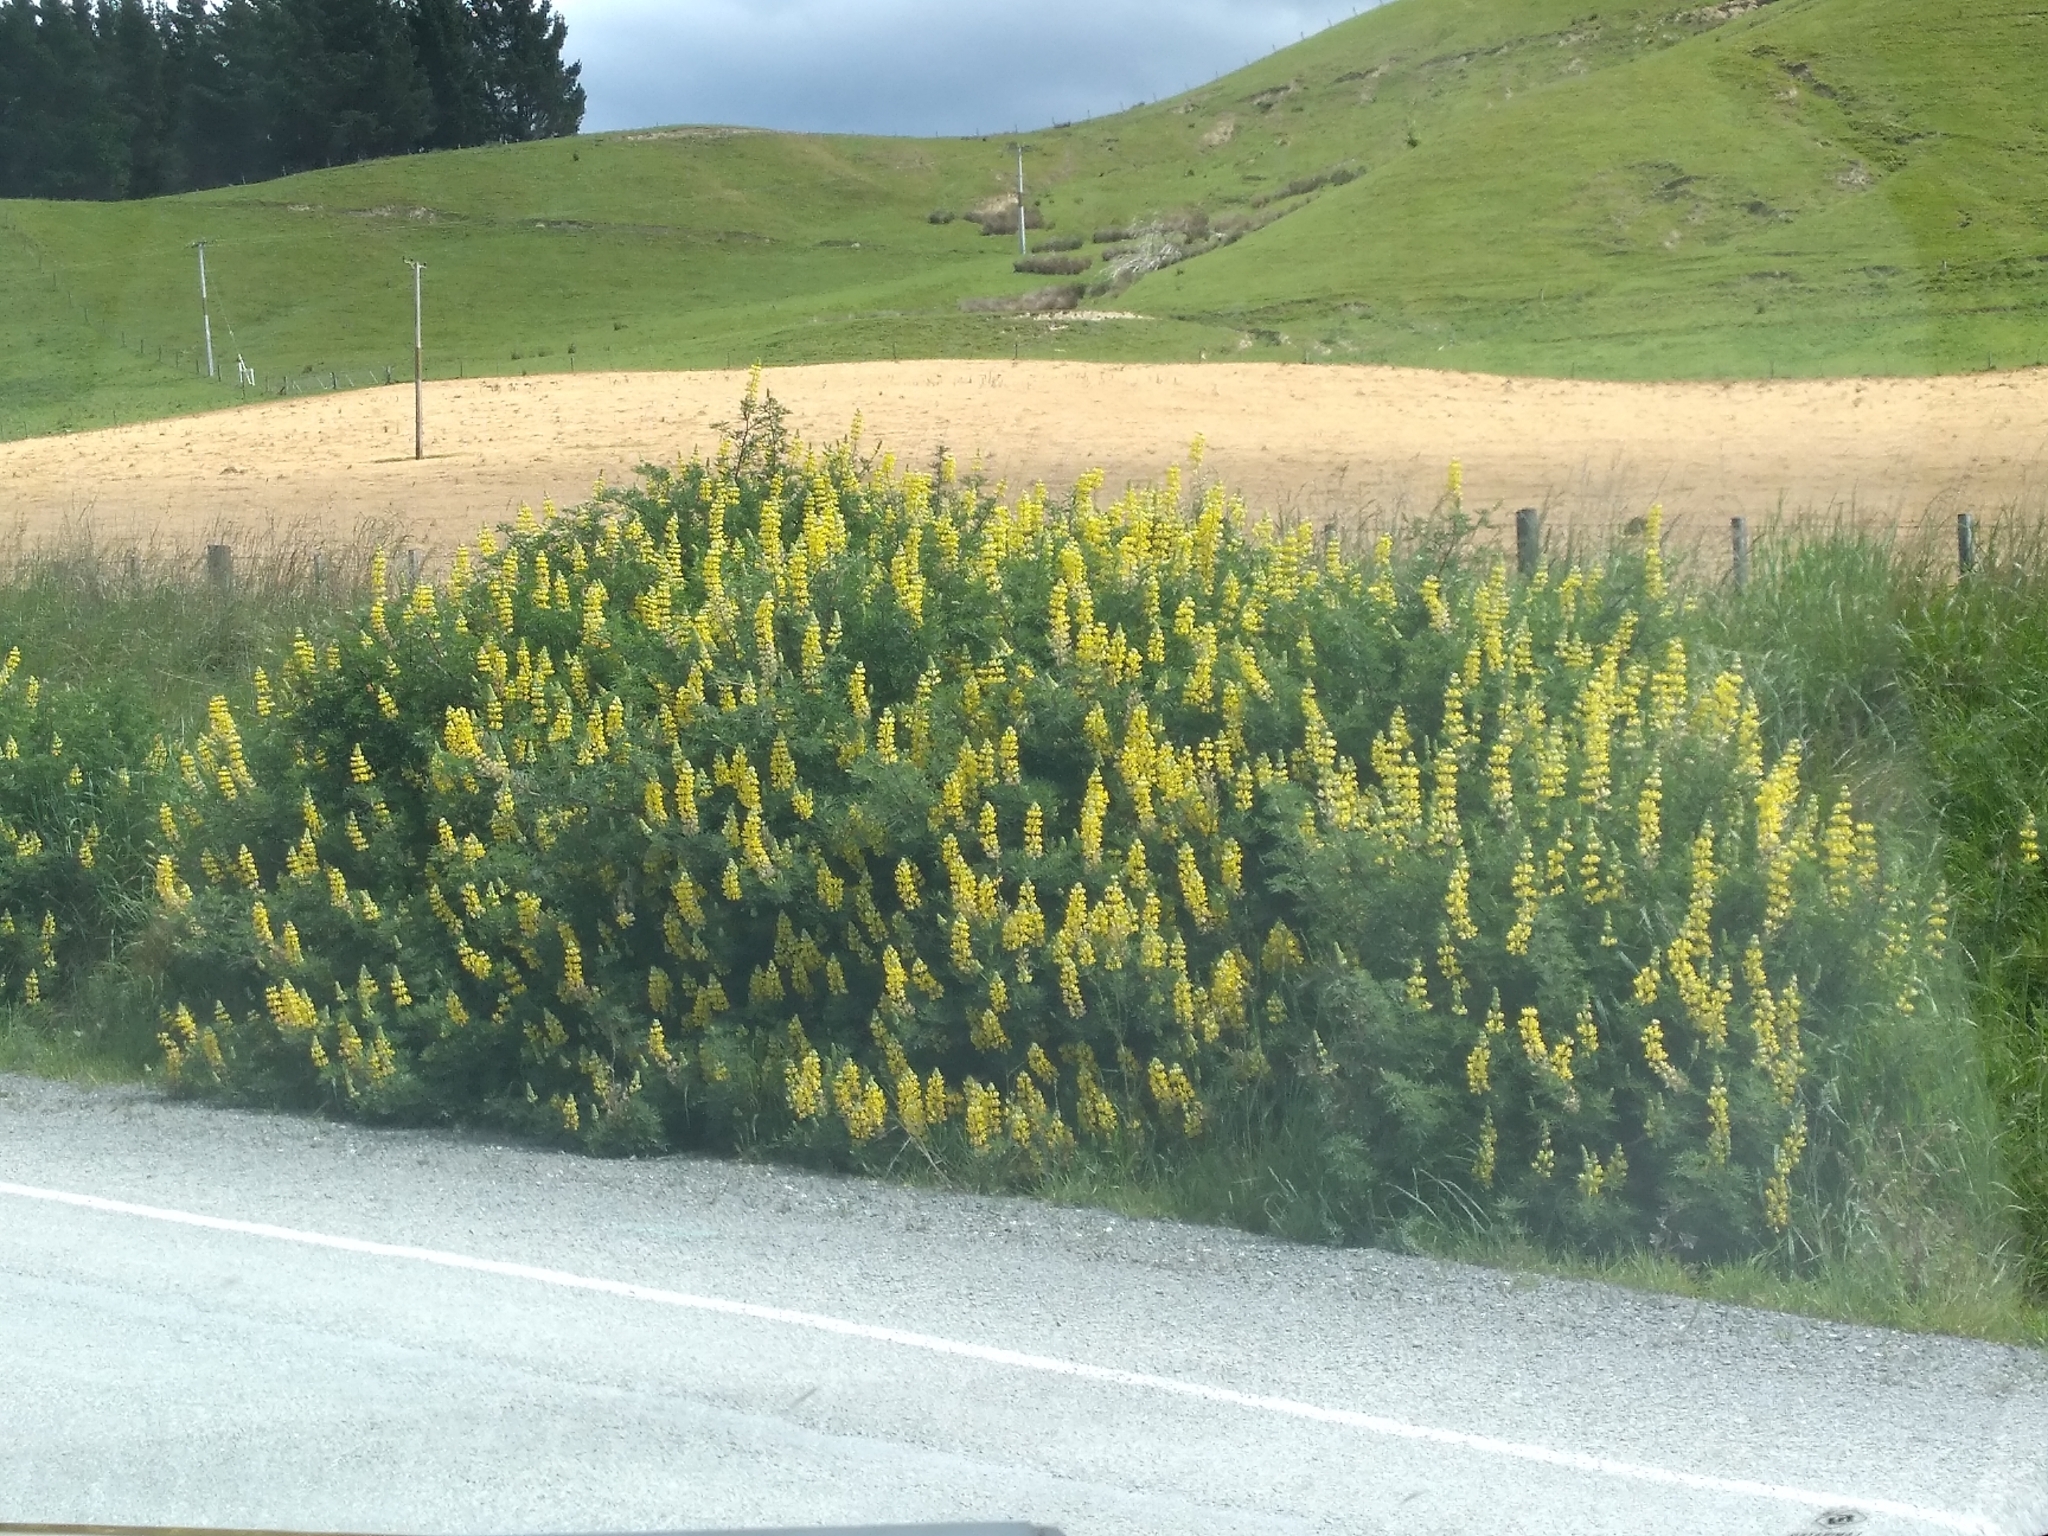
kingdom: Plantae
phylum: Tracheophyta
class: Magnoliopsida
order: Fabales
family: Fabaceae
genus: Lupinus
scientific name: Lupinus arboreus
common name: Yellow bush lupine
